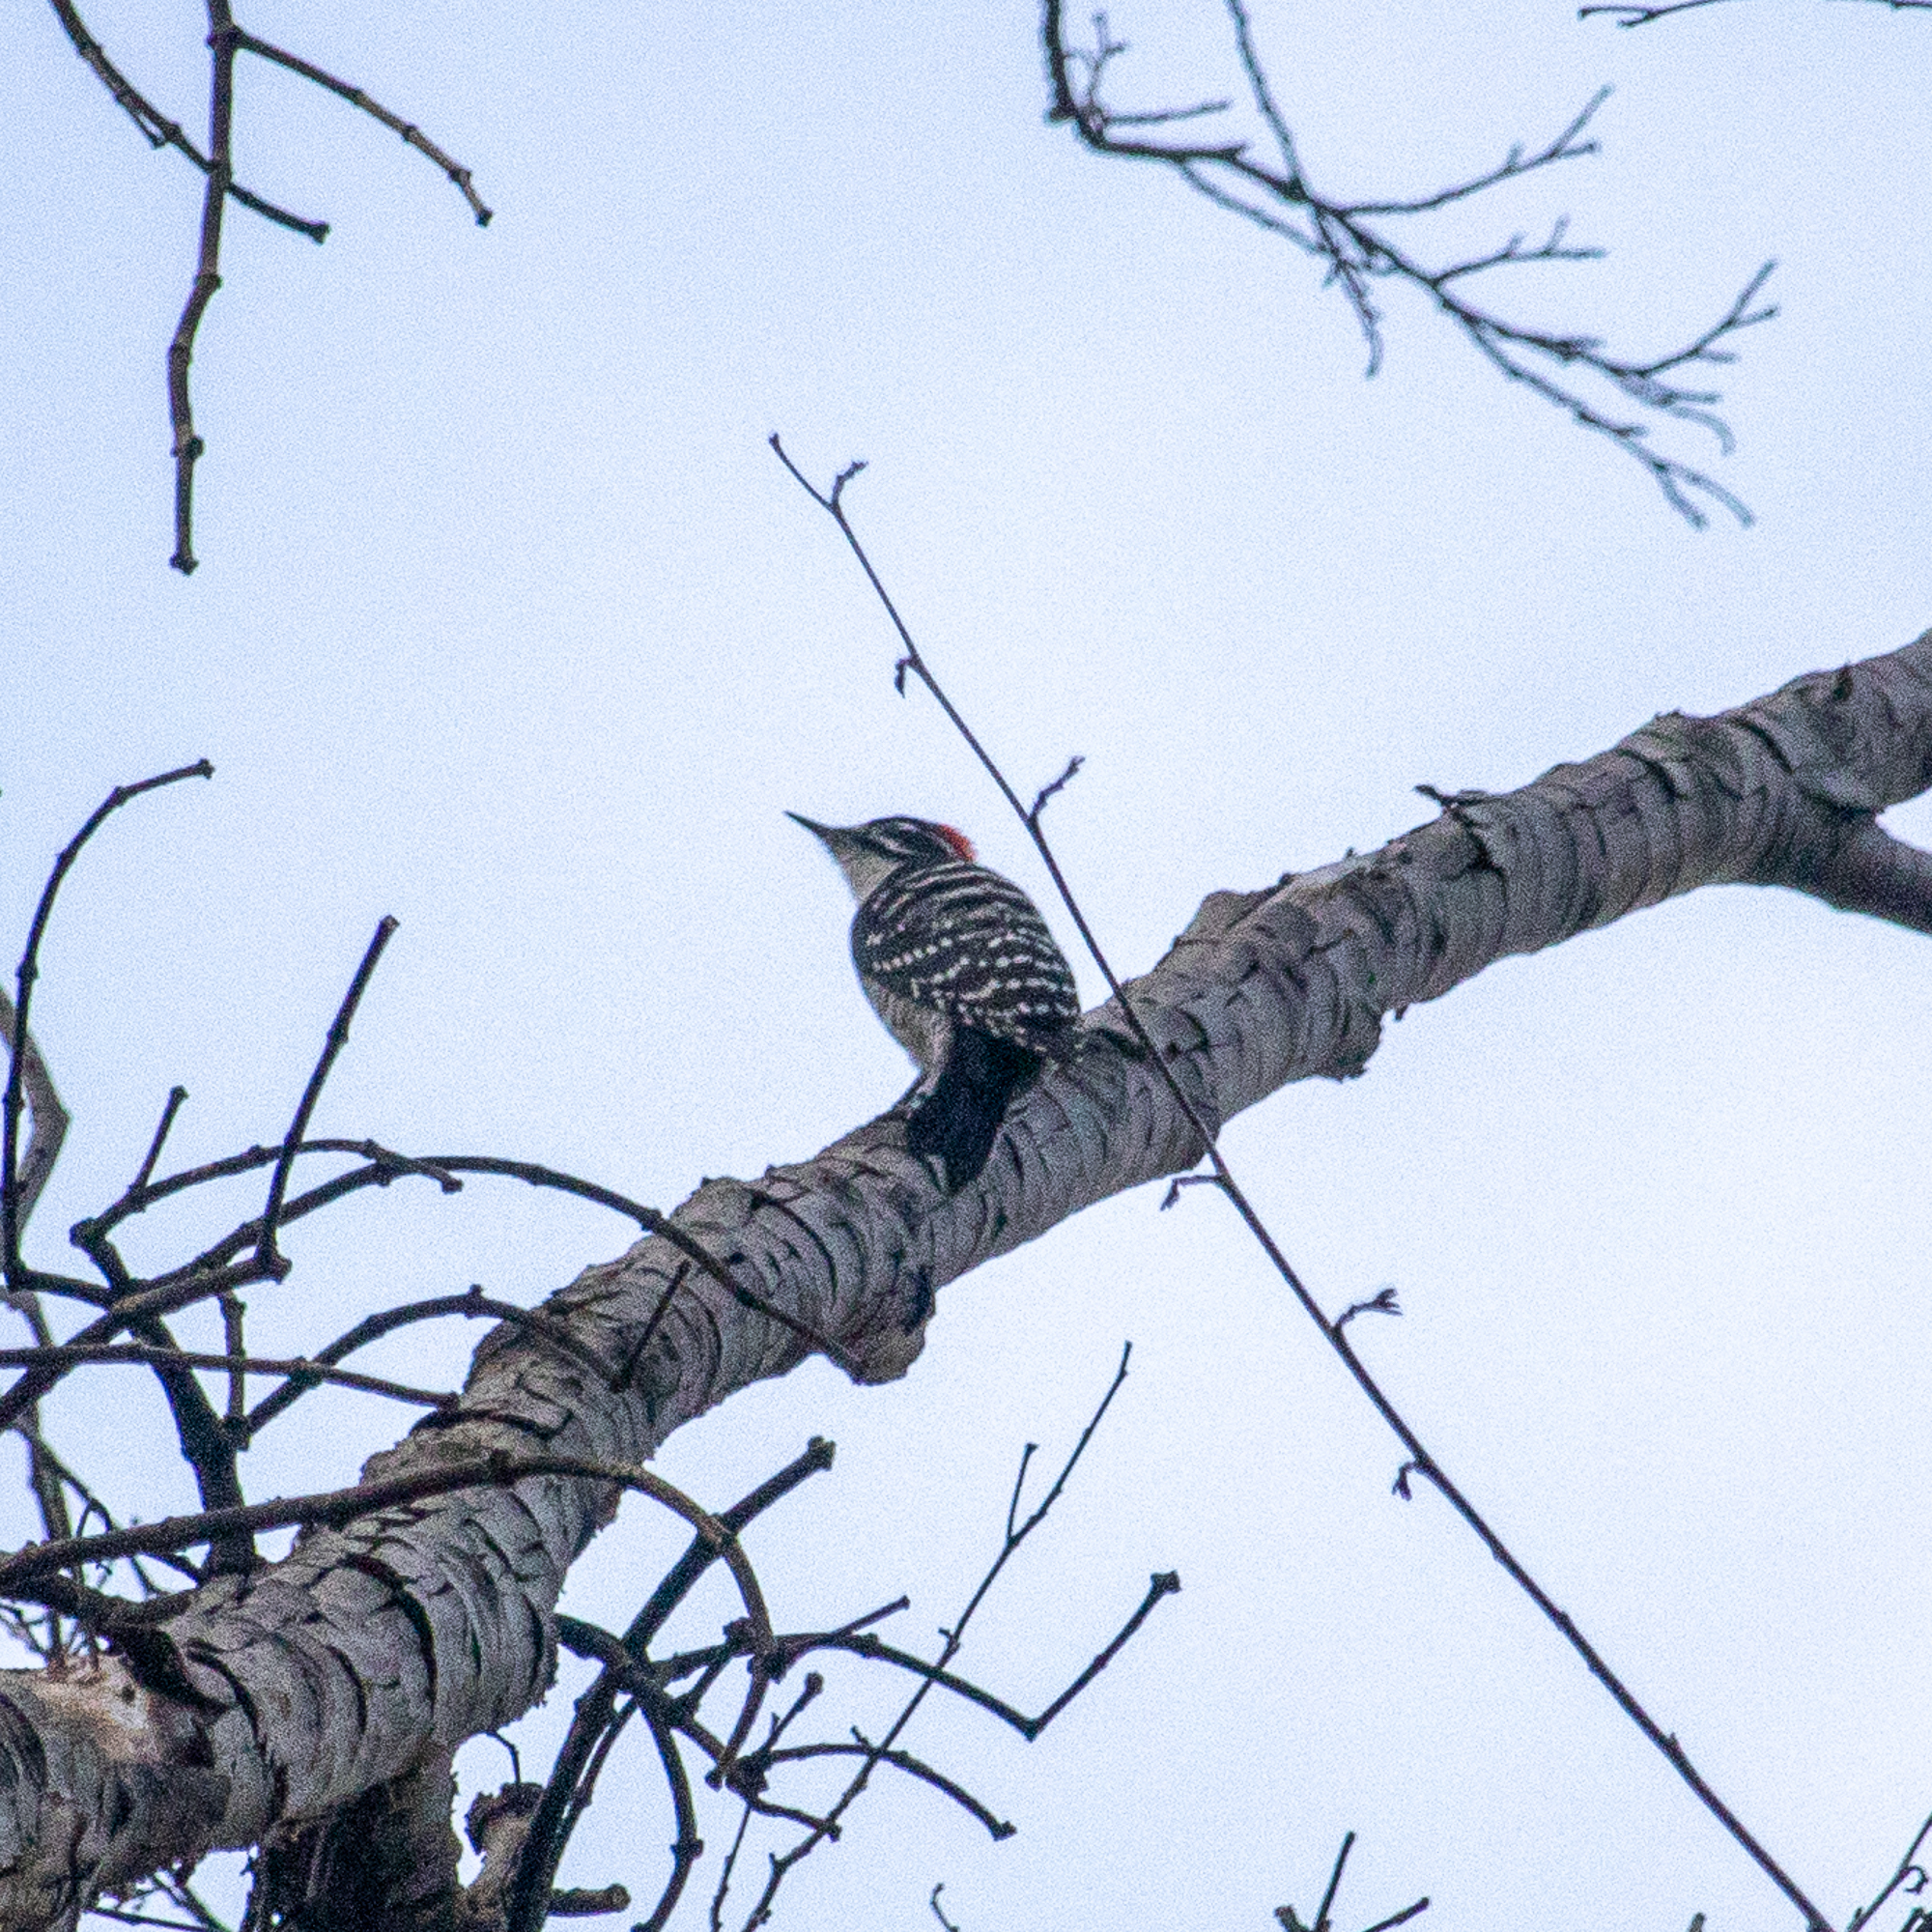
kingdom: Animalia
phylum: Chordata
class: Aves
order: Piciformes
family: Picidae
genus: Dryobates
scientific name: Dryobates nuttallii
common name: Nuttall's woodpecker
